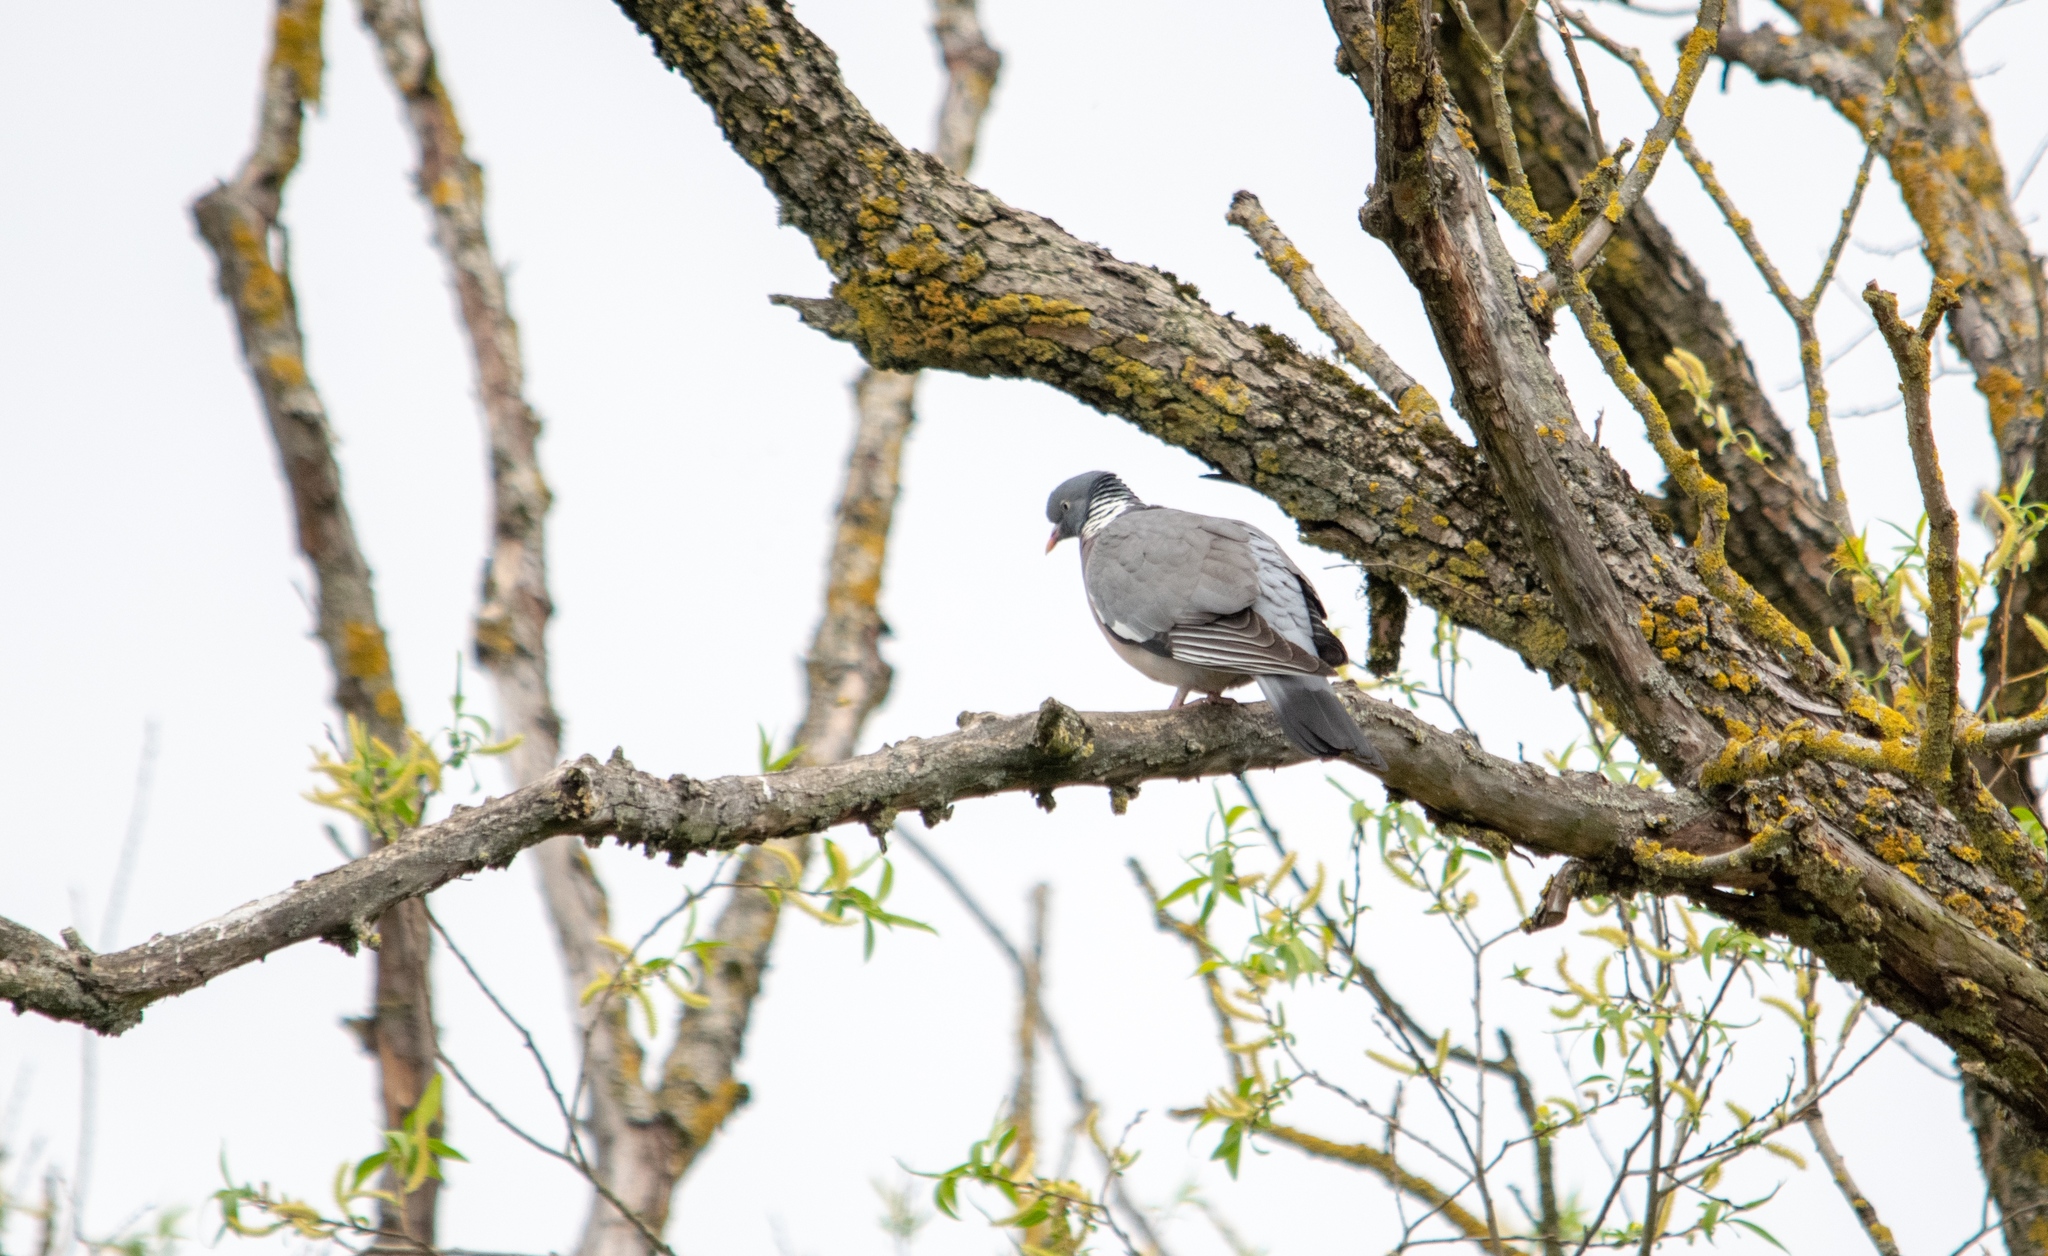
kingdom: Animalia
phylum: Chordata
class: Aves
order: Columbiformes
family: Columbidae
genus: Columba
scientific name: Columba palumbus
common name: Common wood pigeon
